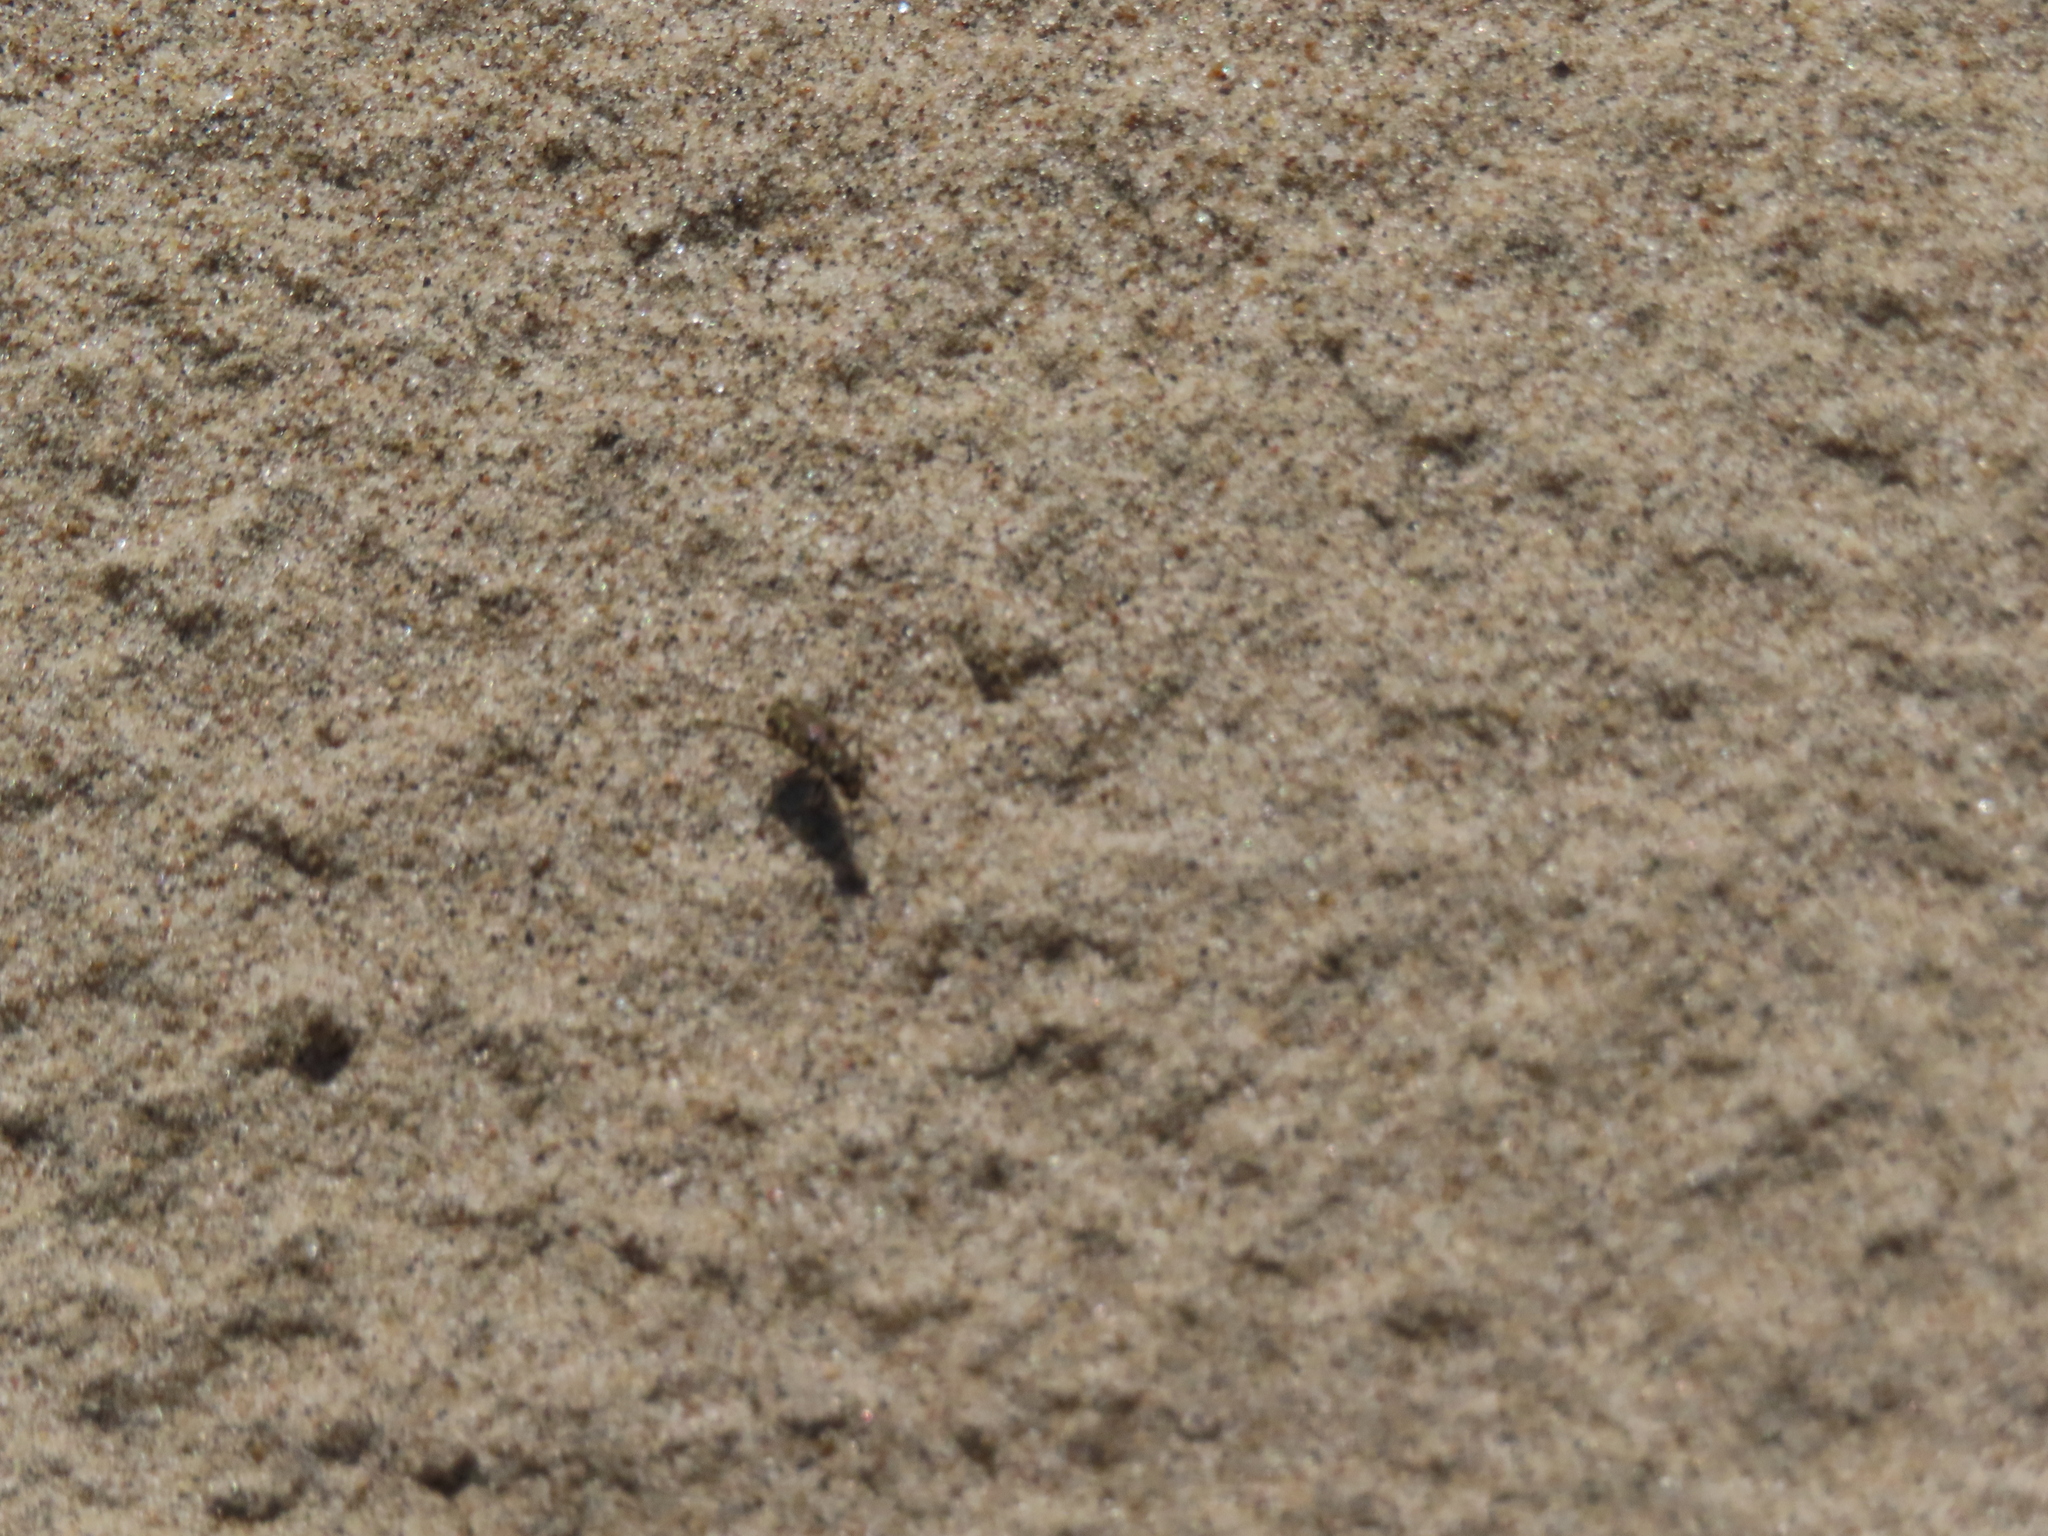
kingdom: Animalia
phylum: Arthropoda
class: Insecta
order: Coleoptera
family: Carabidae
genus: Cicindela
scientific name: Cicindela repanda
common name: Bronzed tiger beetle
